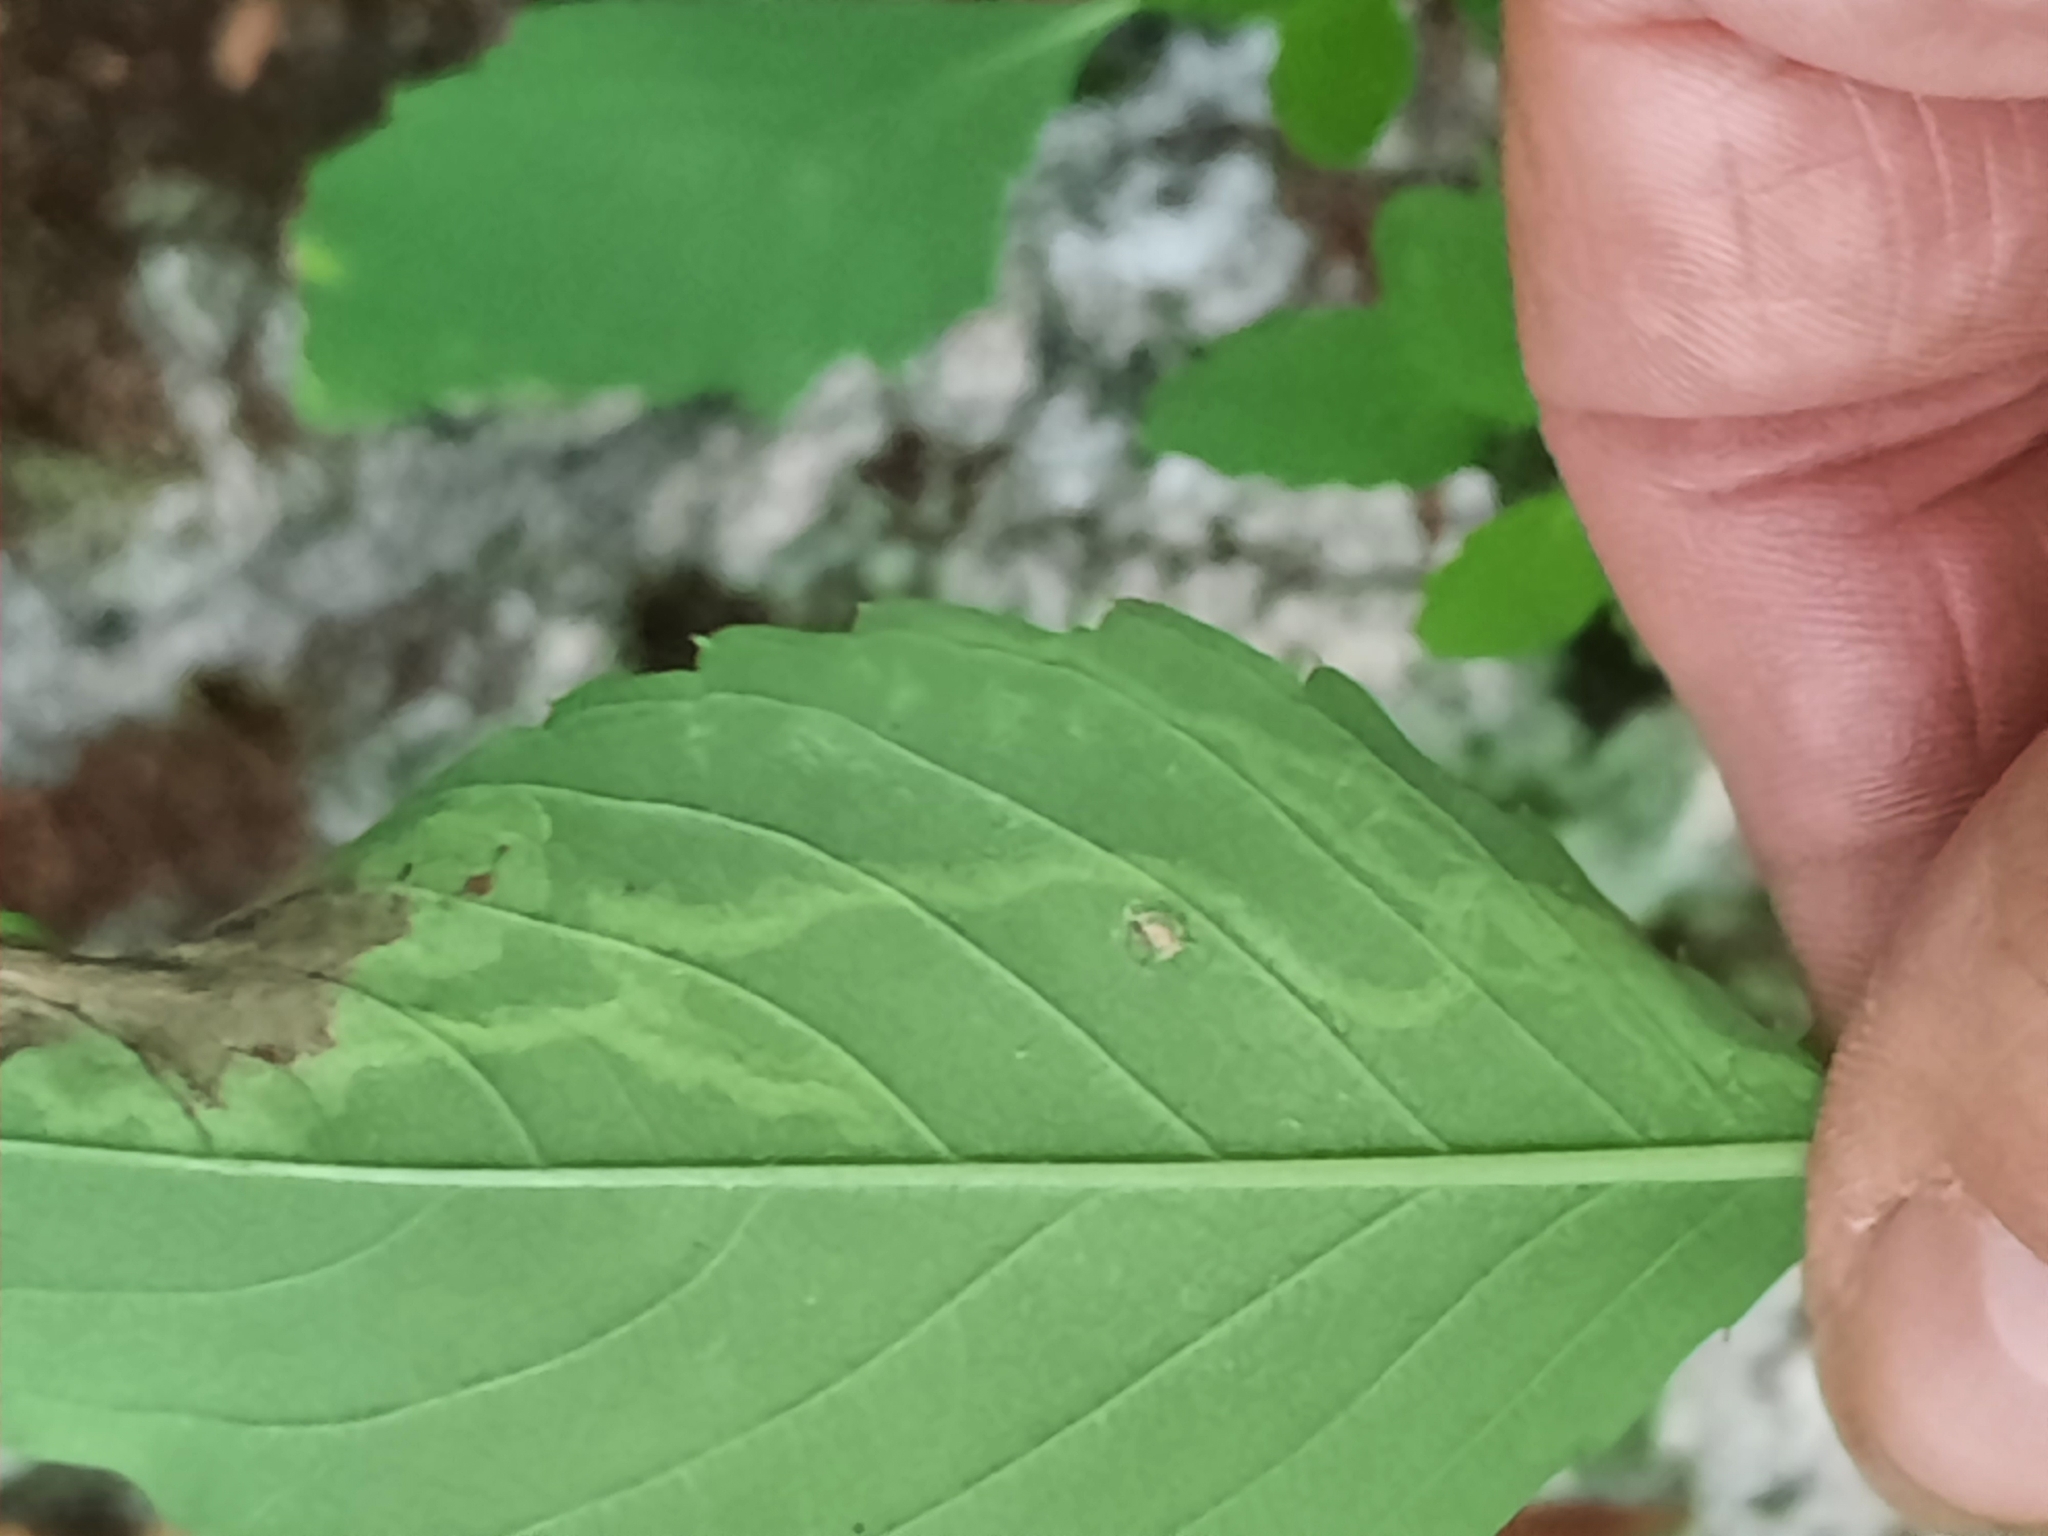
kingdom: Animalia
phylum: Arthropoda
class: Insecta
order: Diptera
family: Agromyzidae
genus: Phytoliriomyza
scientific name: Phytoliriomyza melampyga
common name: Jewelweed leaf-miner fly
